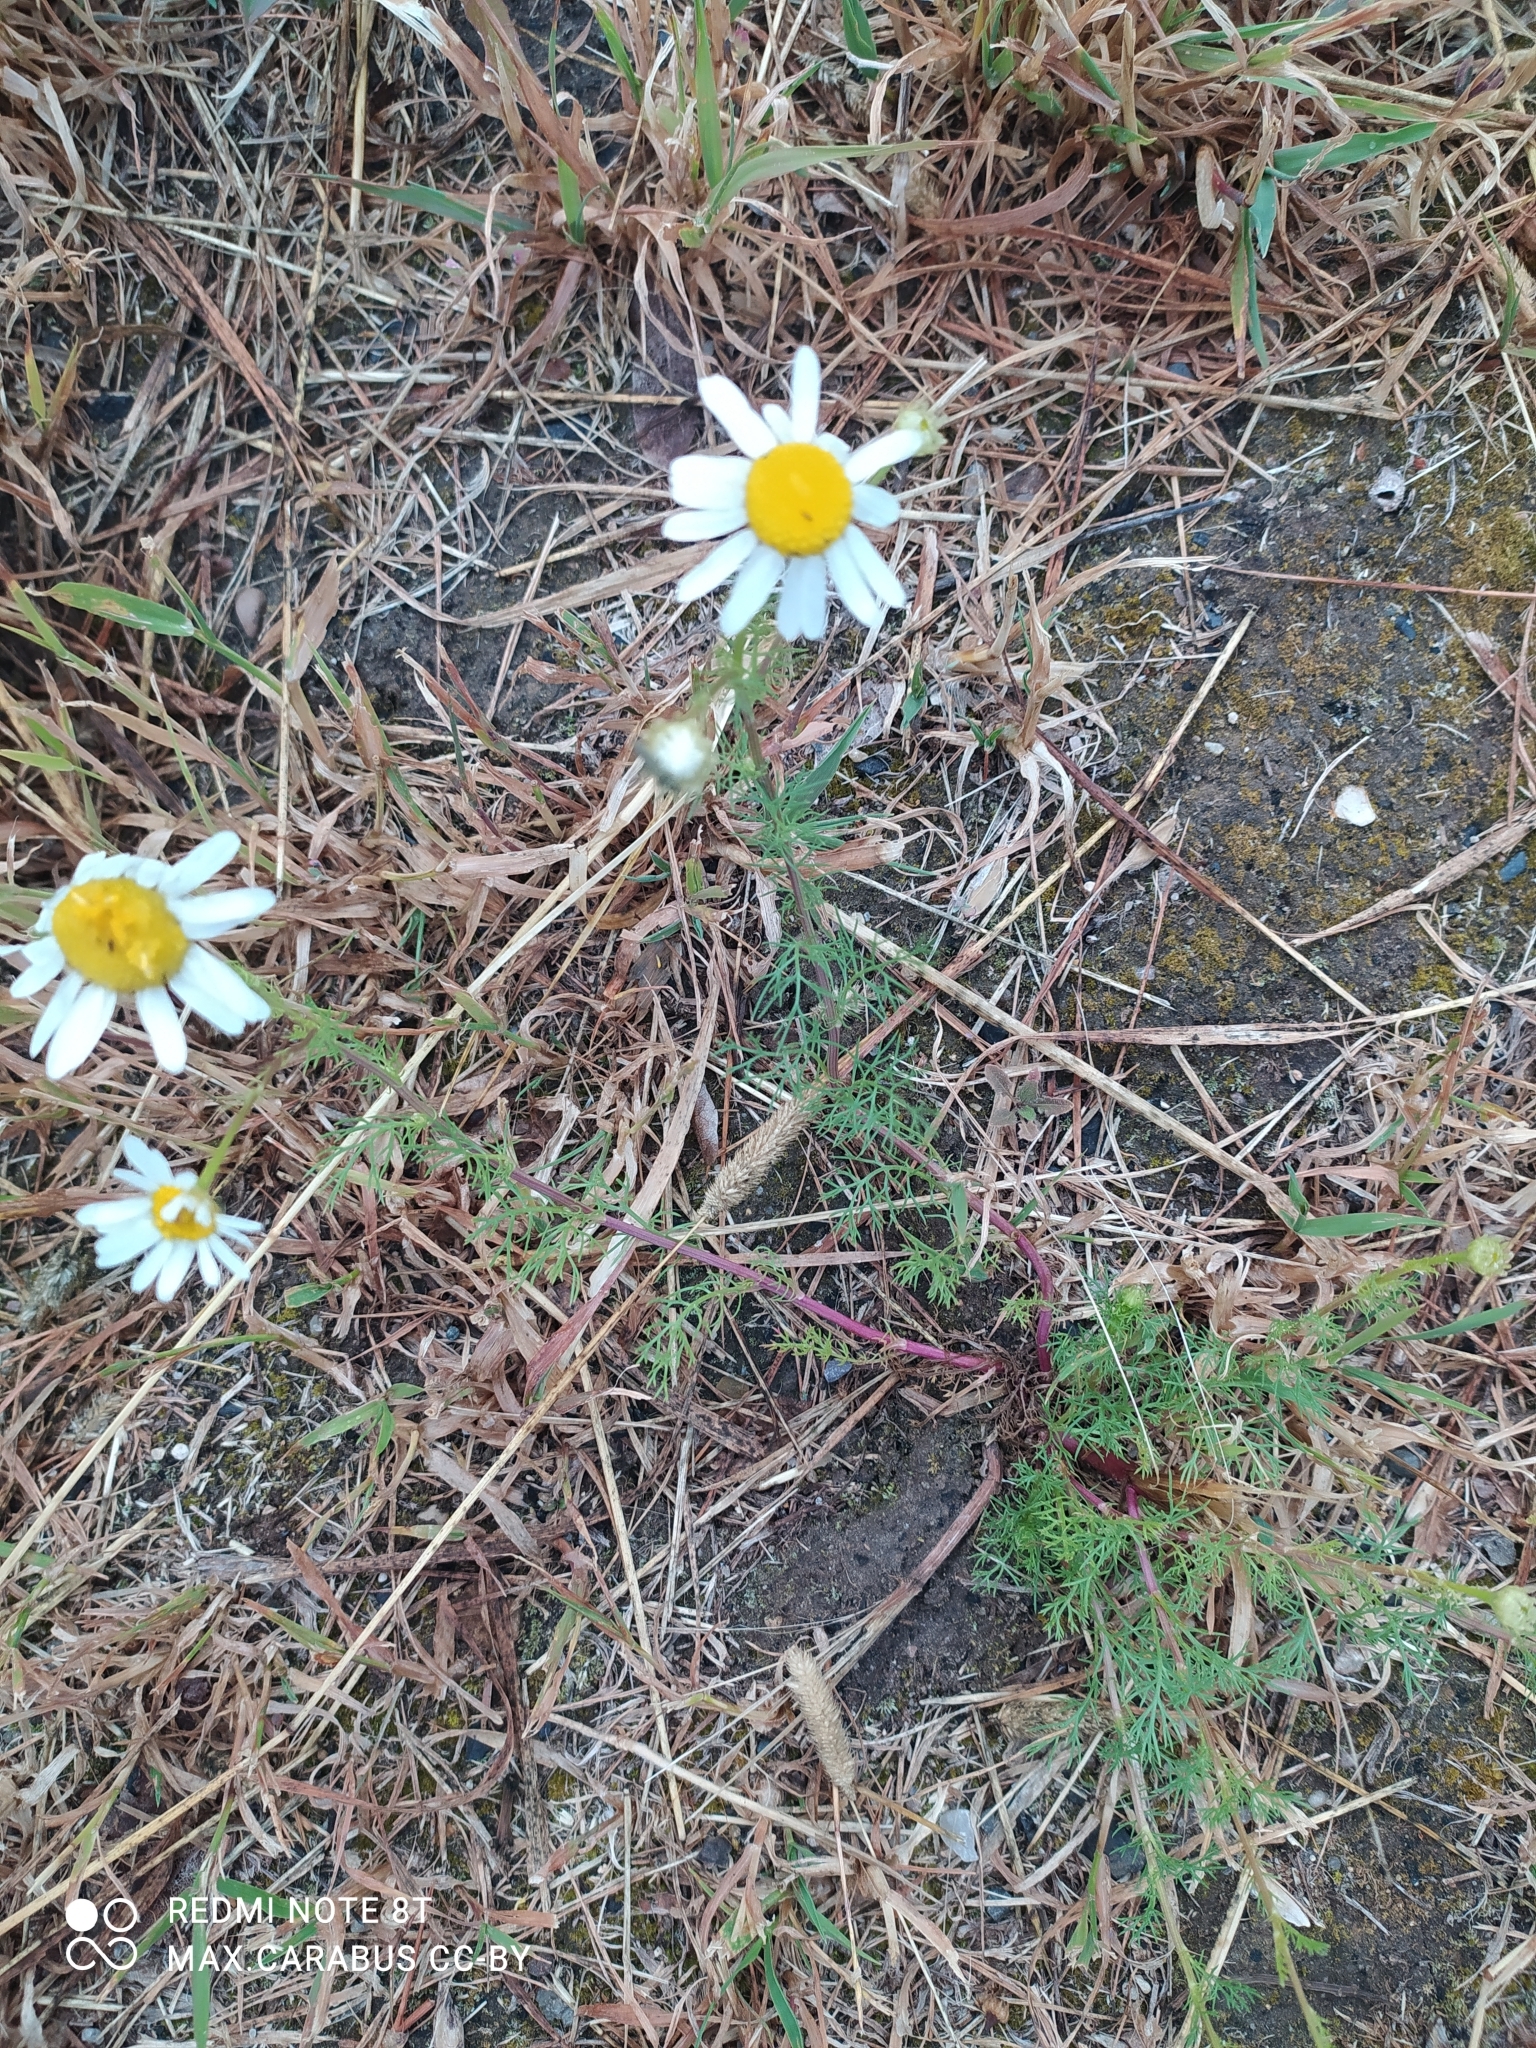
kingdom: Plantae
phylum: Tracheophyta
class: Magnoliopsida
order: Asterales
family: Asteraceae
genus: Tripleurospermum
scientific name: Tripleurospermum inodorum
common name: Scentless mayweed
